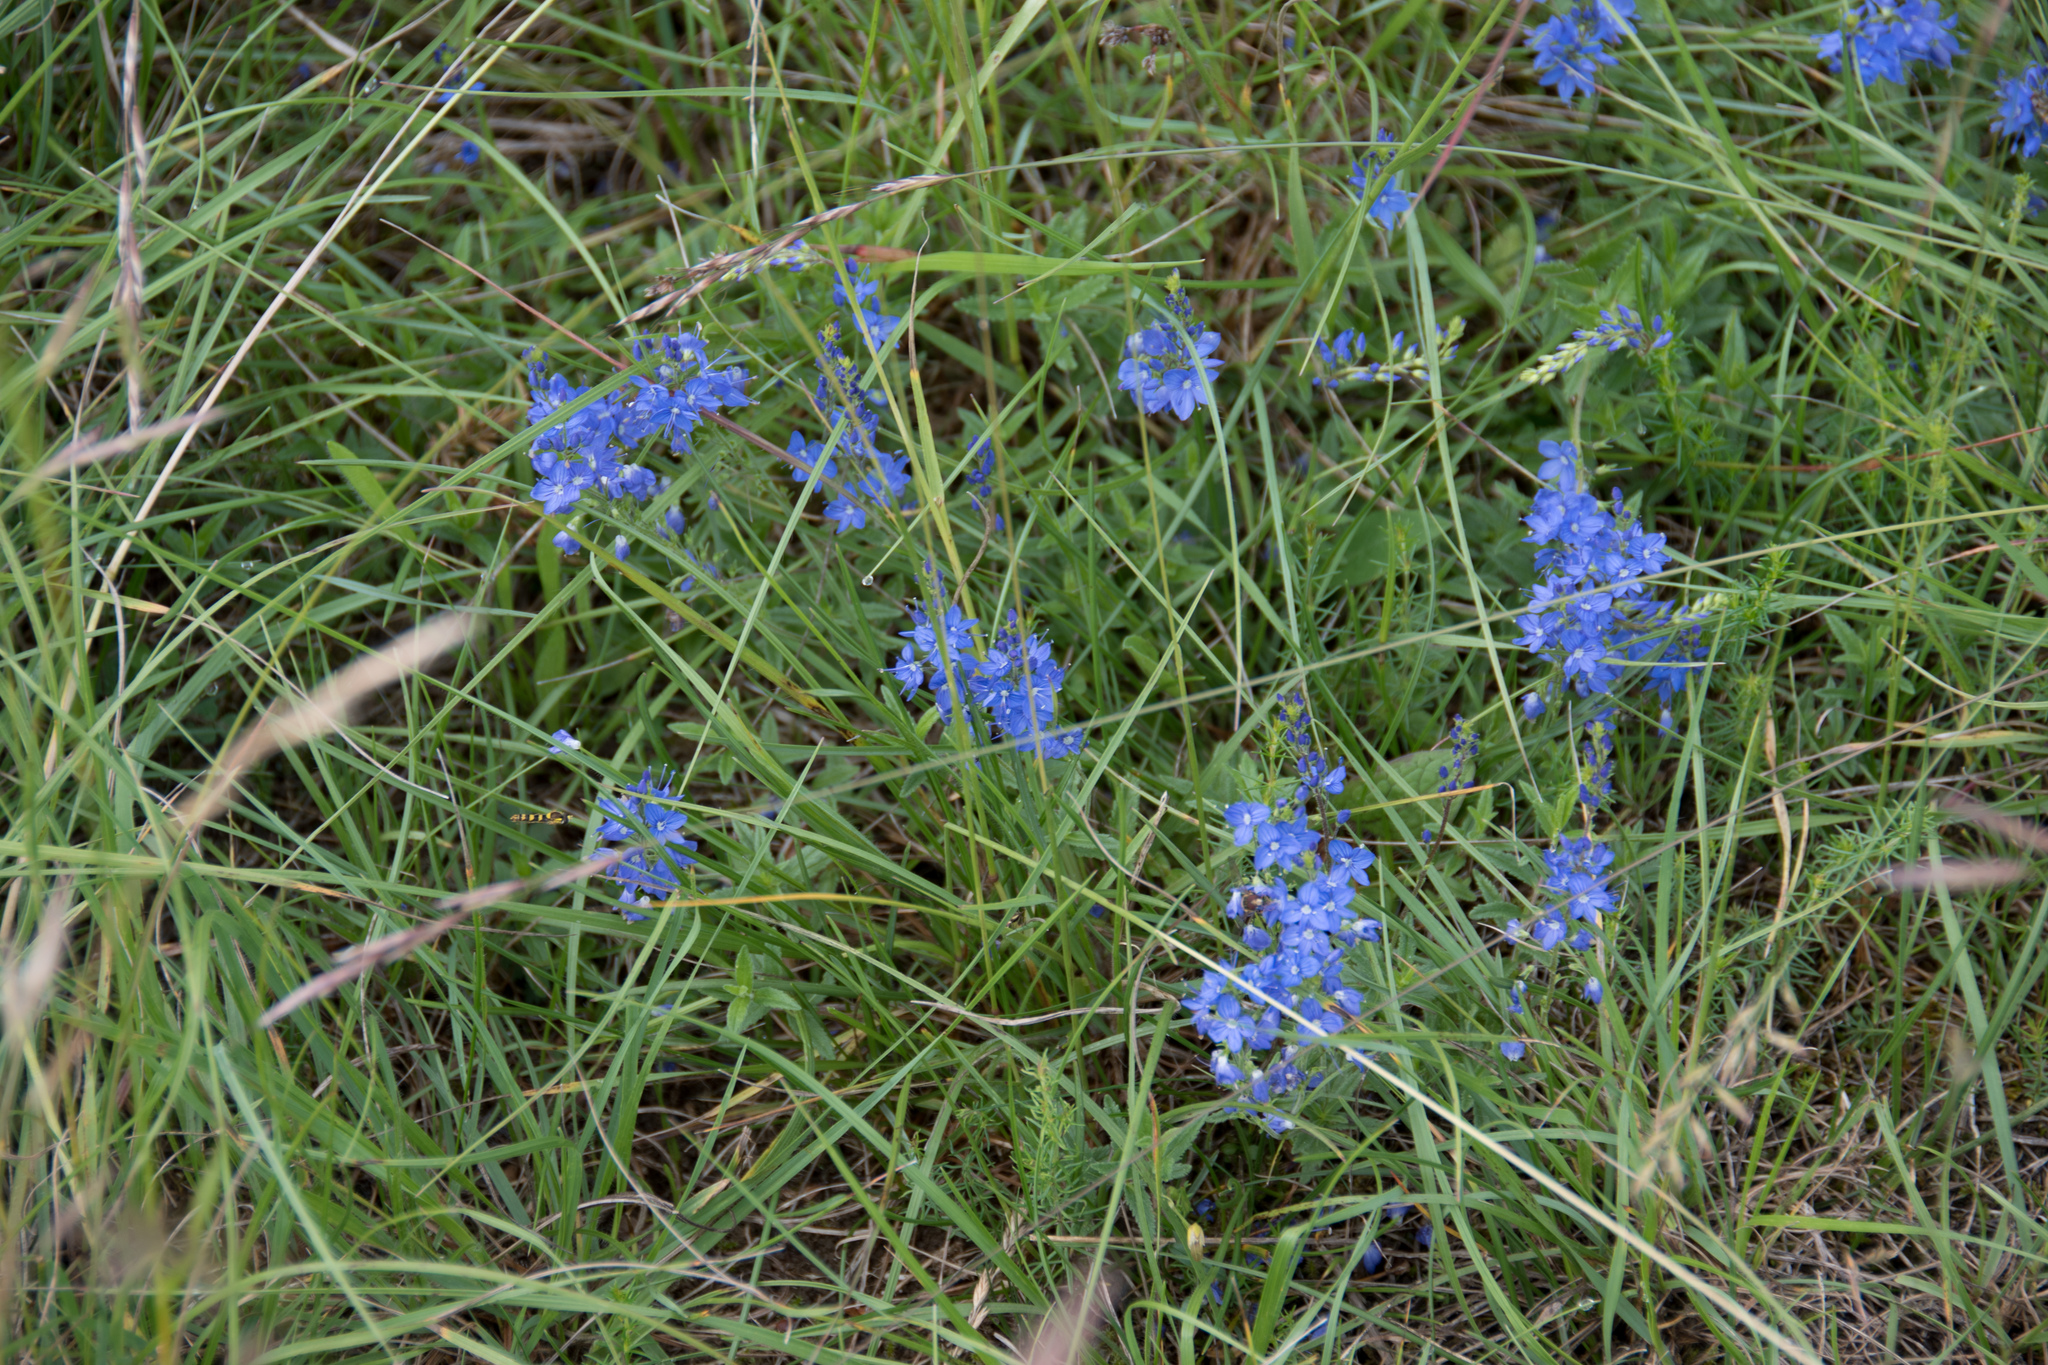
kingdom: Plantae
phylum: Tracheophyta
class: Magnoliopsida
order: Lamiales
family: Plantaginaceae
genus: Veronica
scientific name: Veronica teucrium
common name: Large speedwell
